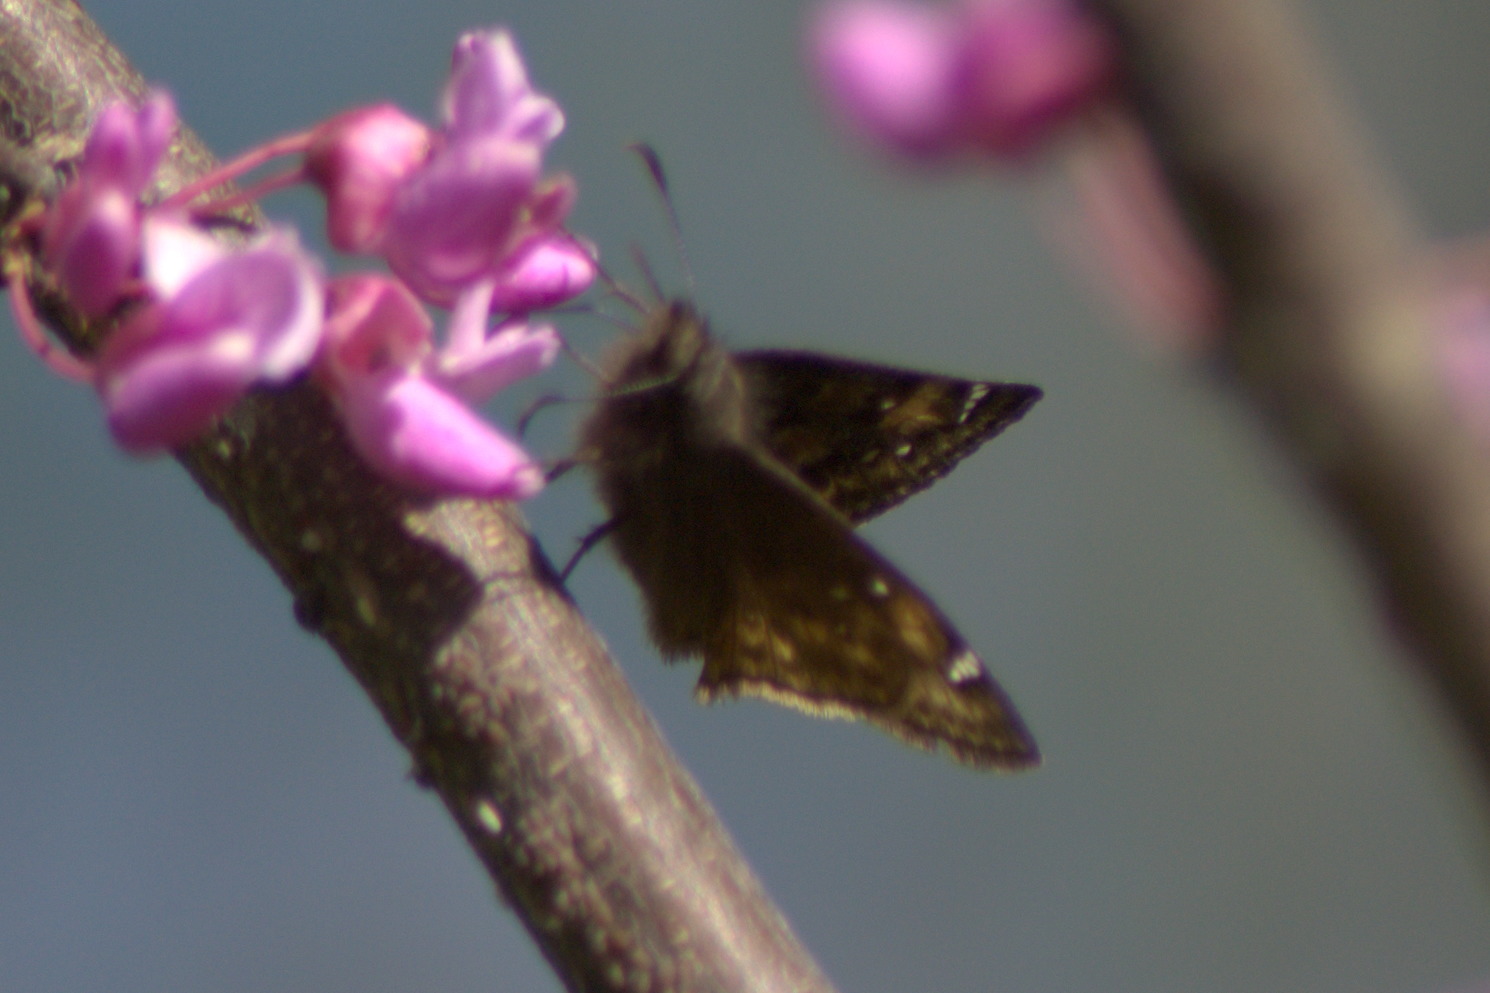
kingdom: Animalia
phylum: Arthropoda
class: Insecta
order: Lepidoptera
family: Hesperiidae
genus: Erynnis
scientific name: Erynnis juvenalis
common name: Juvenal's duskywing
